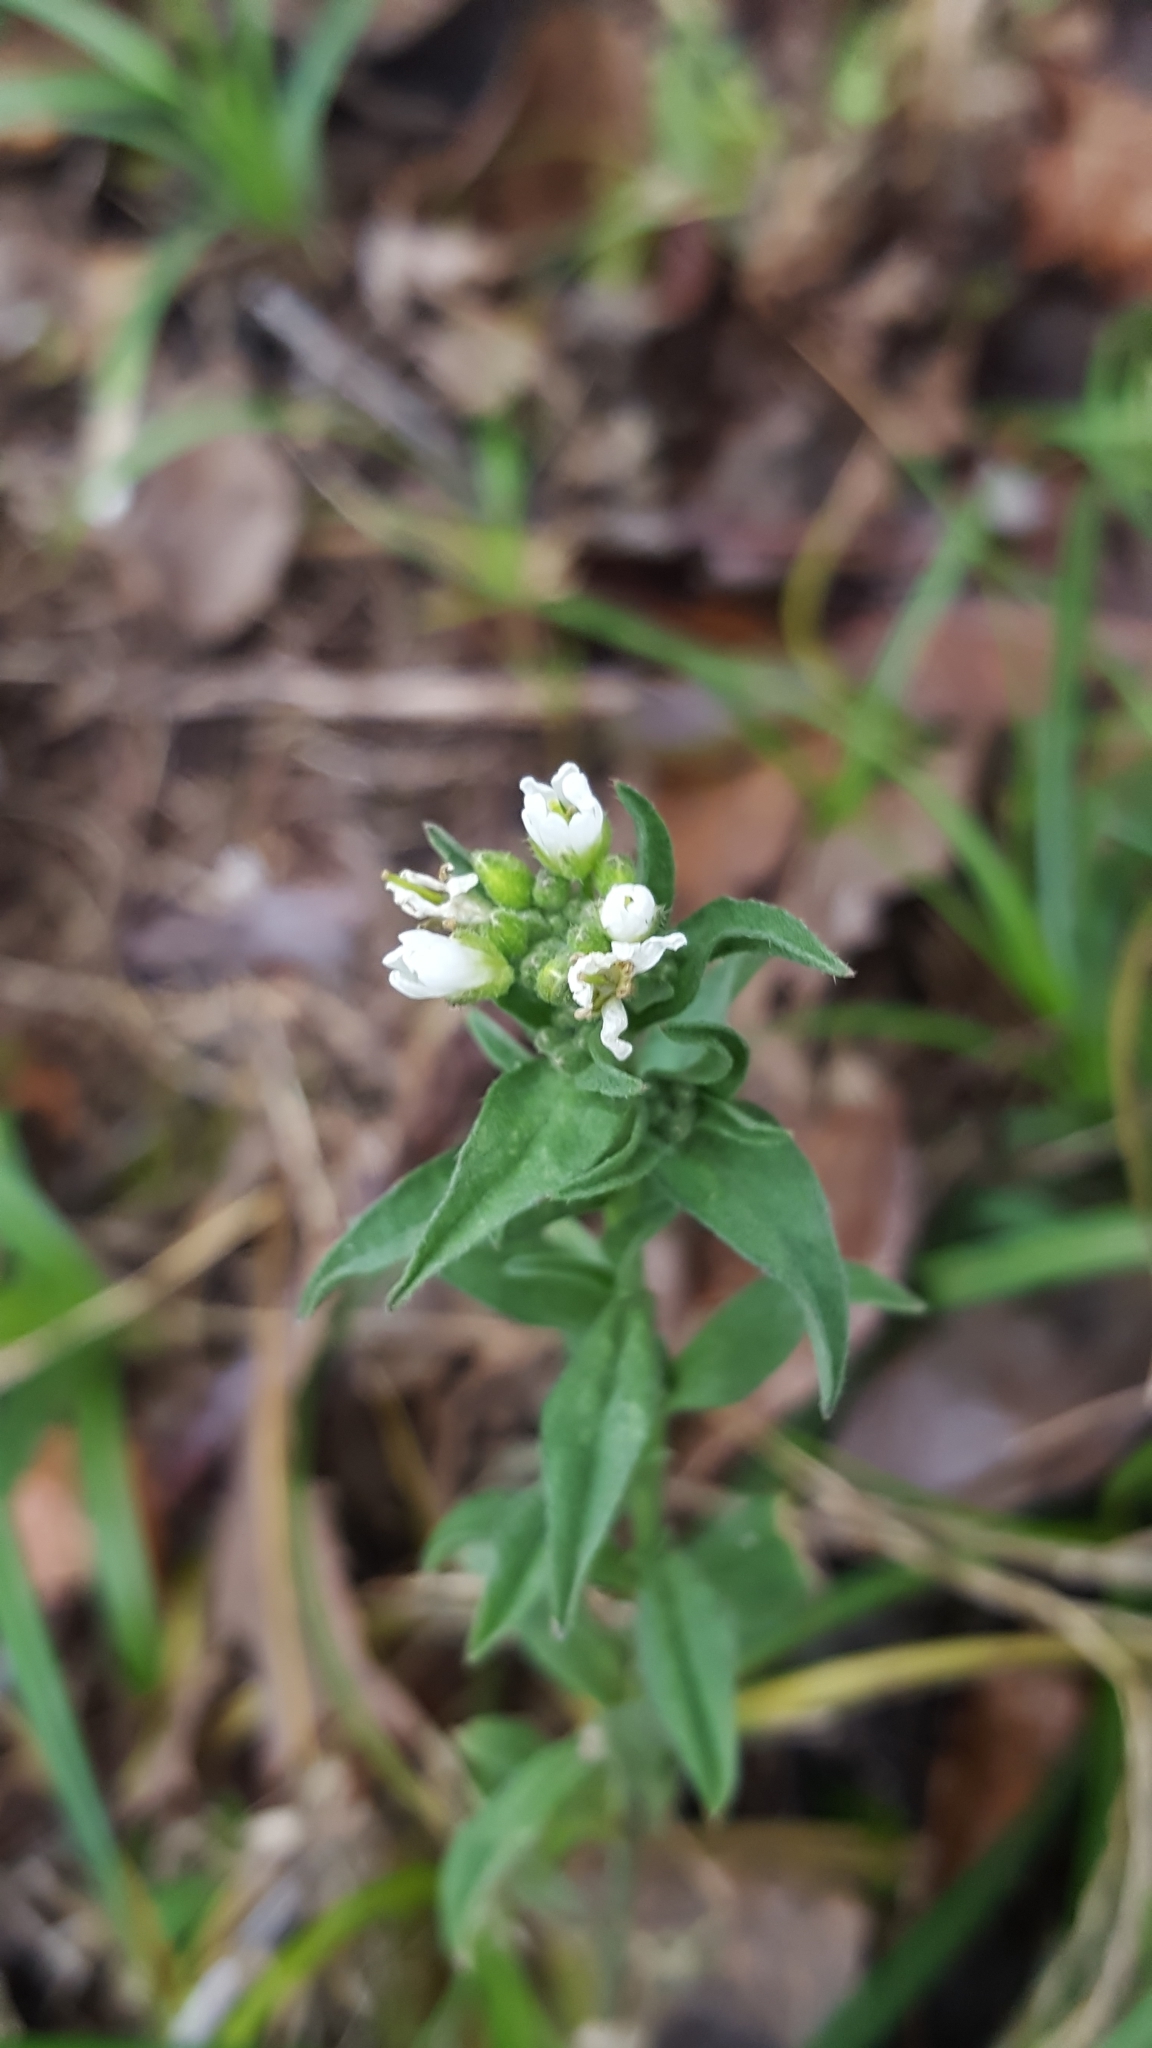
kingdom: Plantae
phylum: Tracheophyta
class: Magnoliopsida
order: Brassicales
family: Brassicaceae
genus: Berteroa
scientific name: Berteroa incana
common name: Hoary alison
